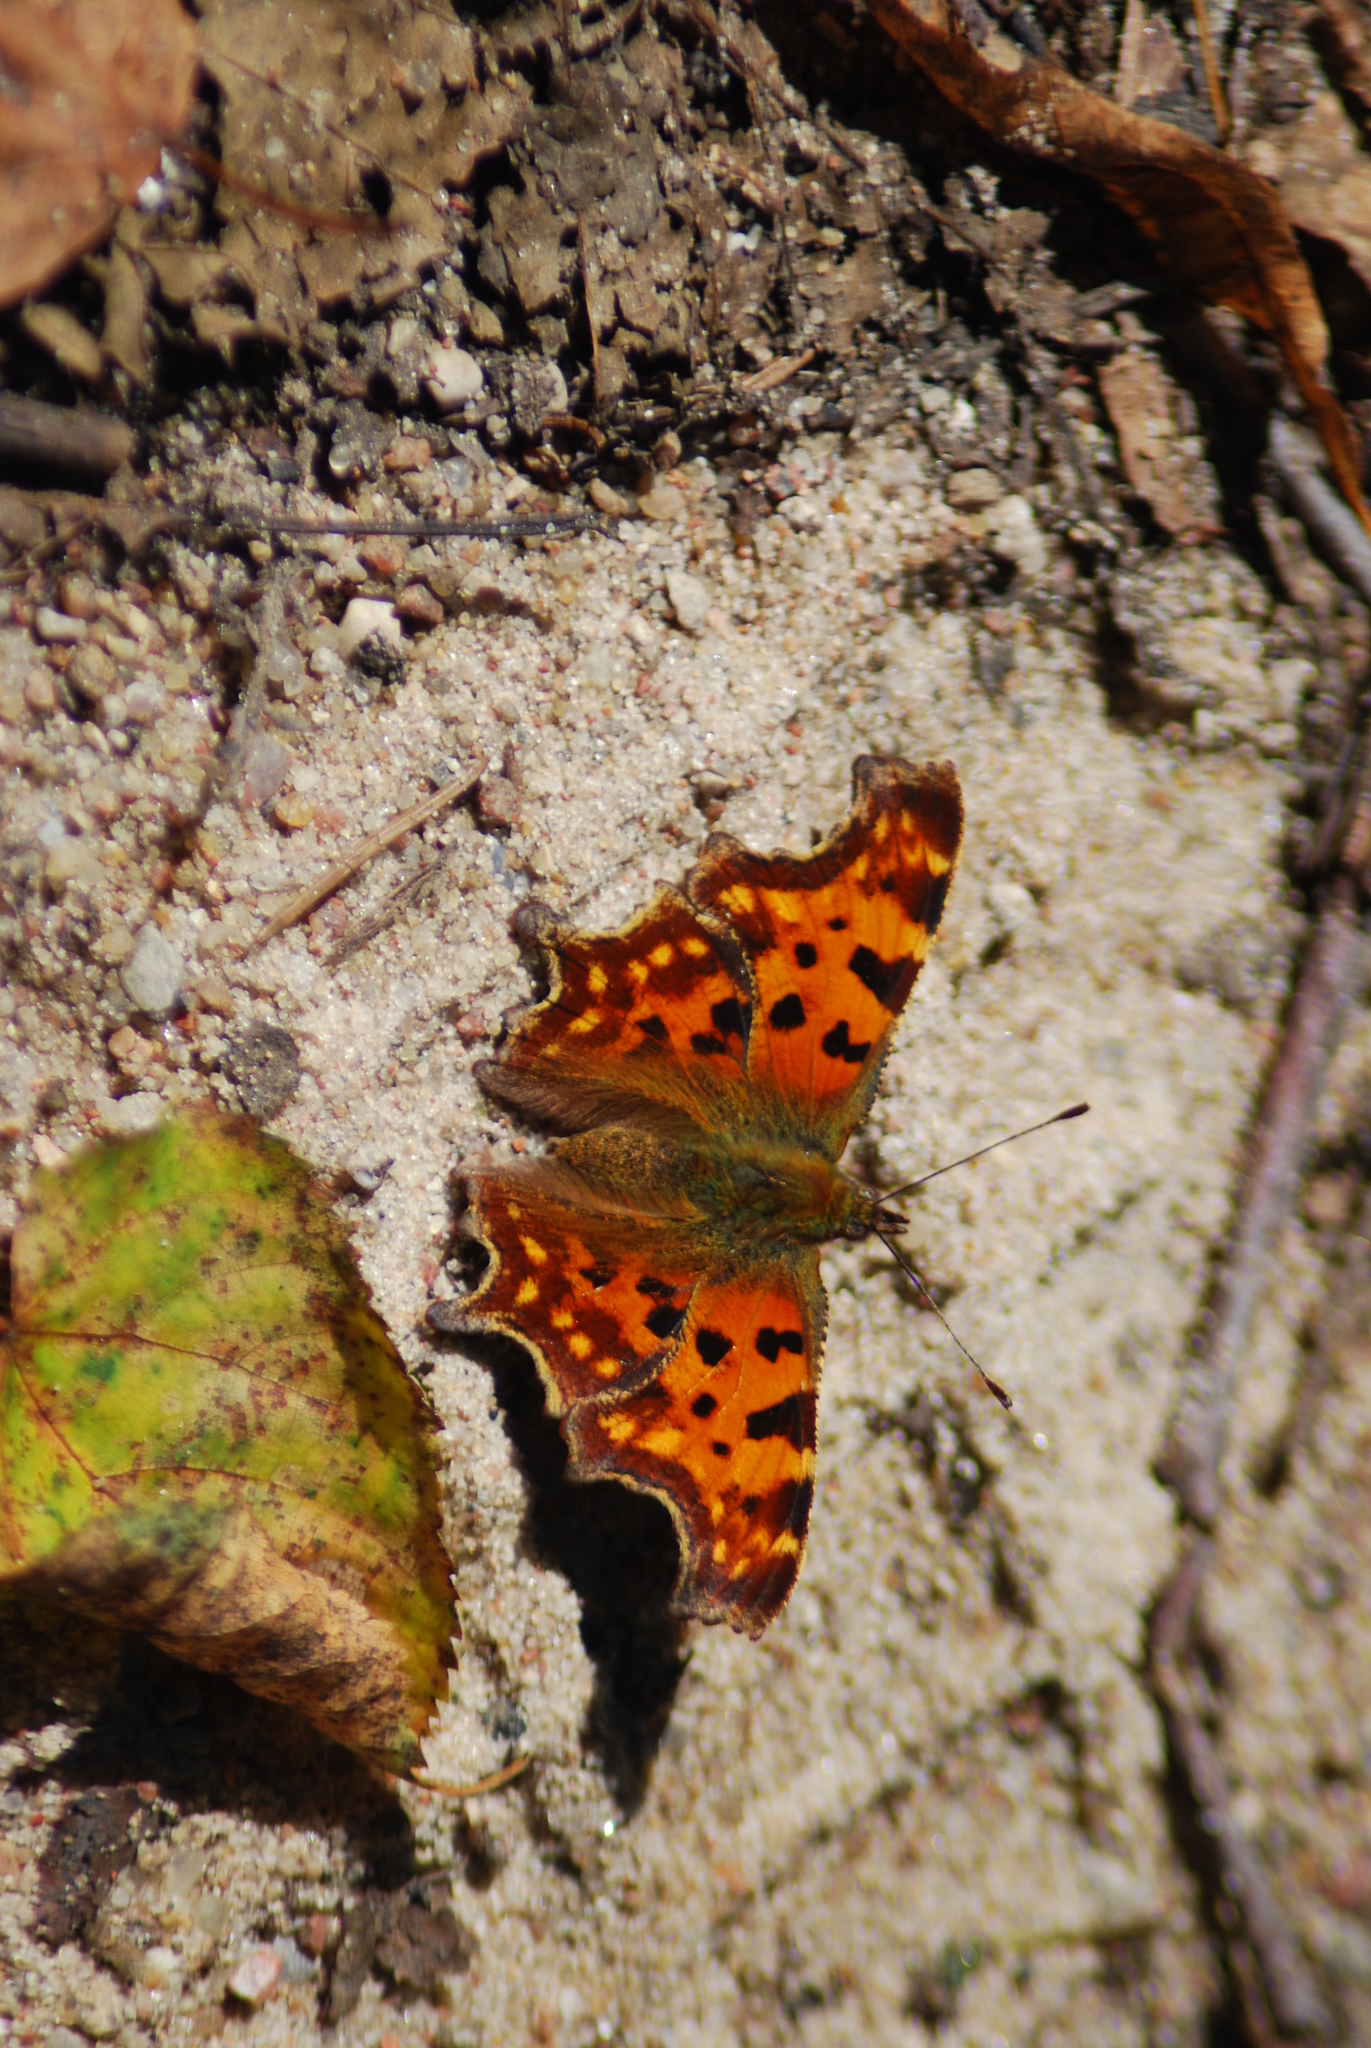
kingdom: Animalia
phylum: Arthropoda
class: Insecta
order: Lepidoptera
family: Nymphalidae
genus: Polygonia
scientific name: Polygonia c-album
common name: Comma
